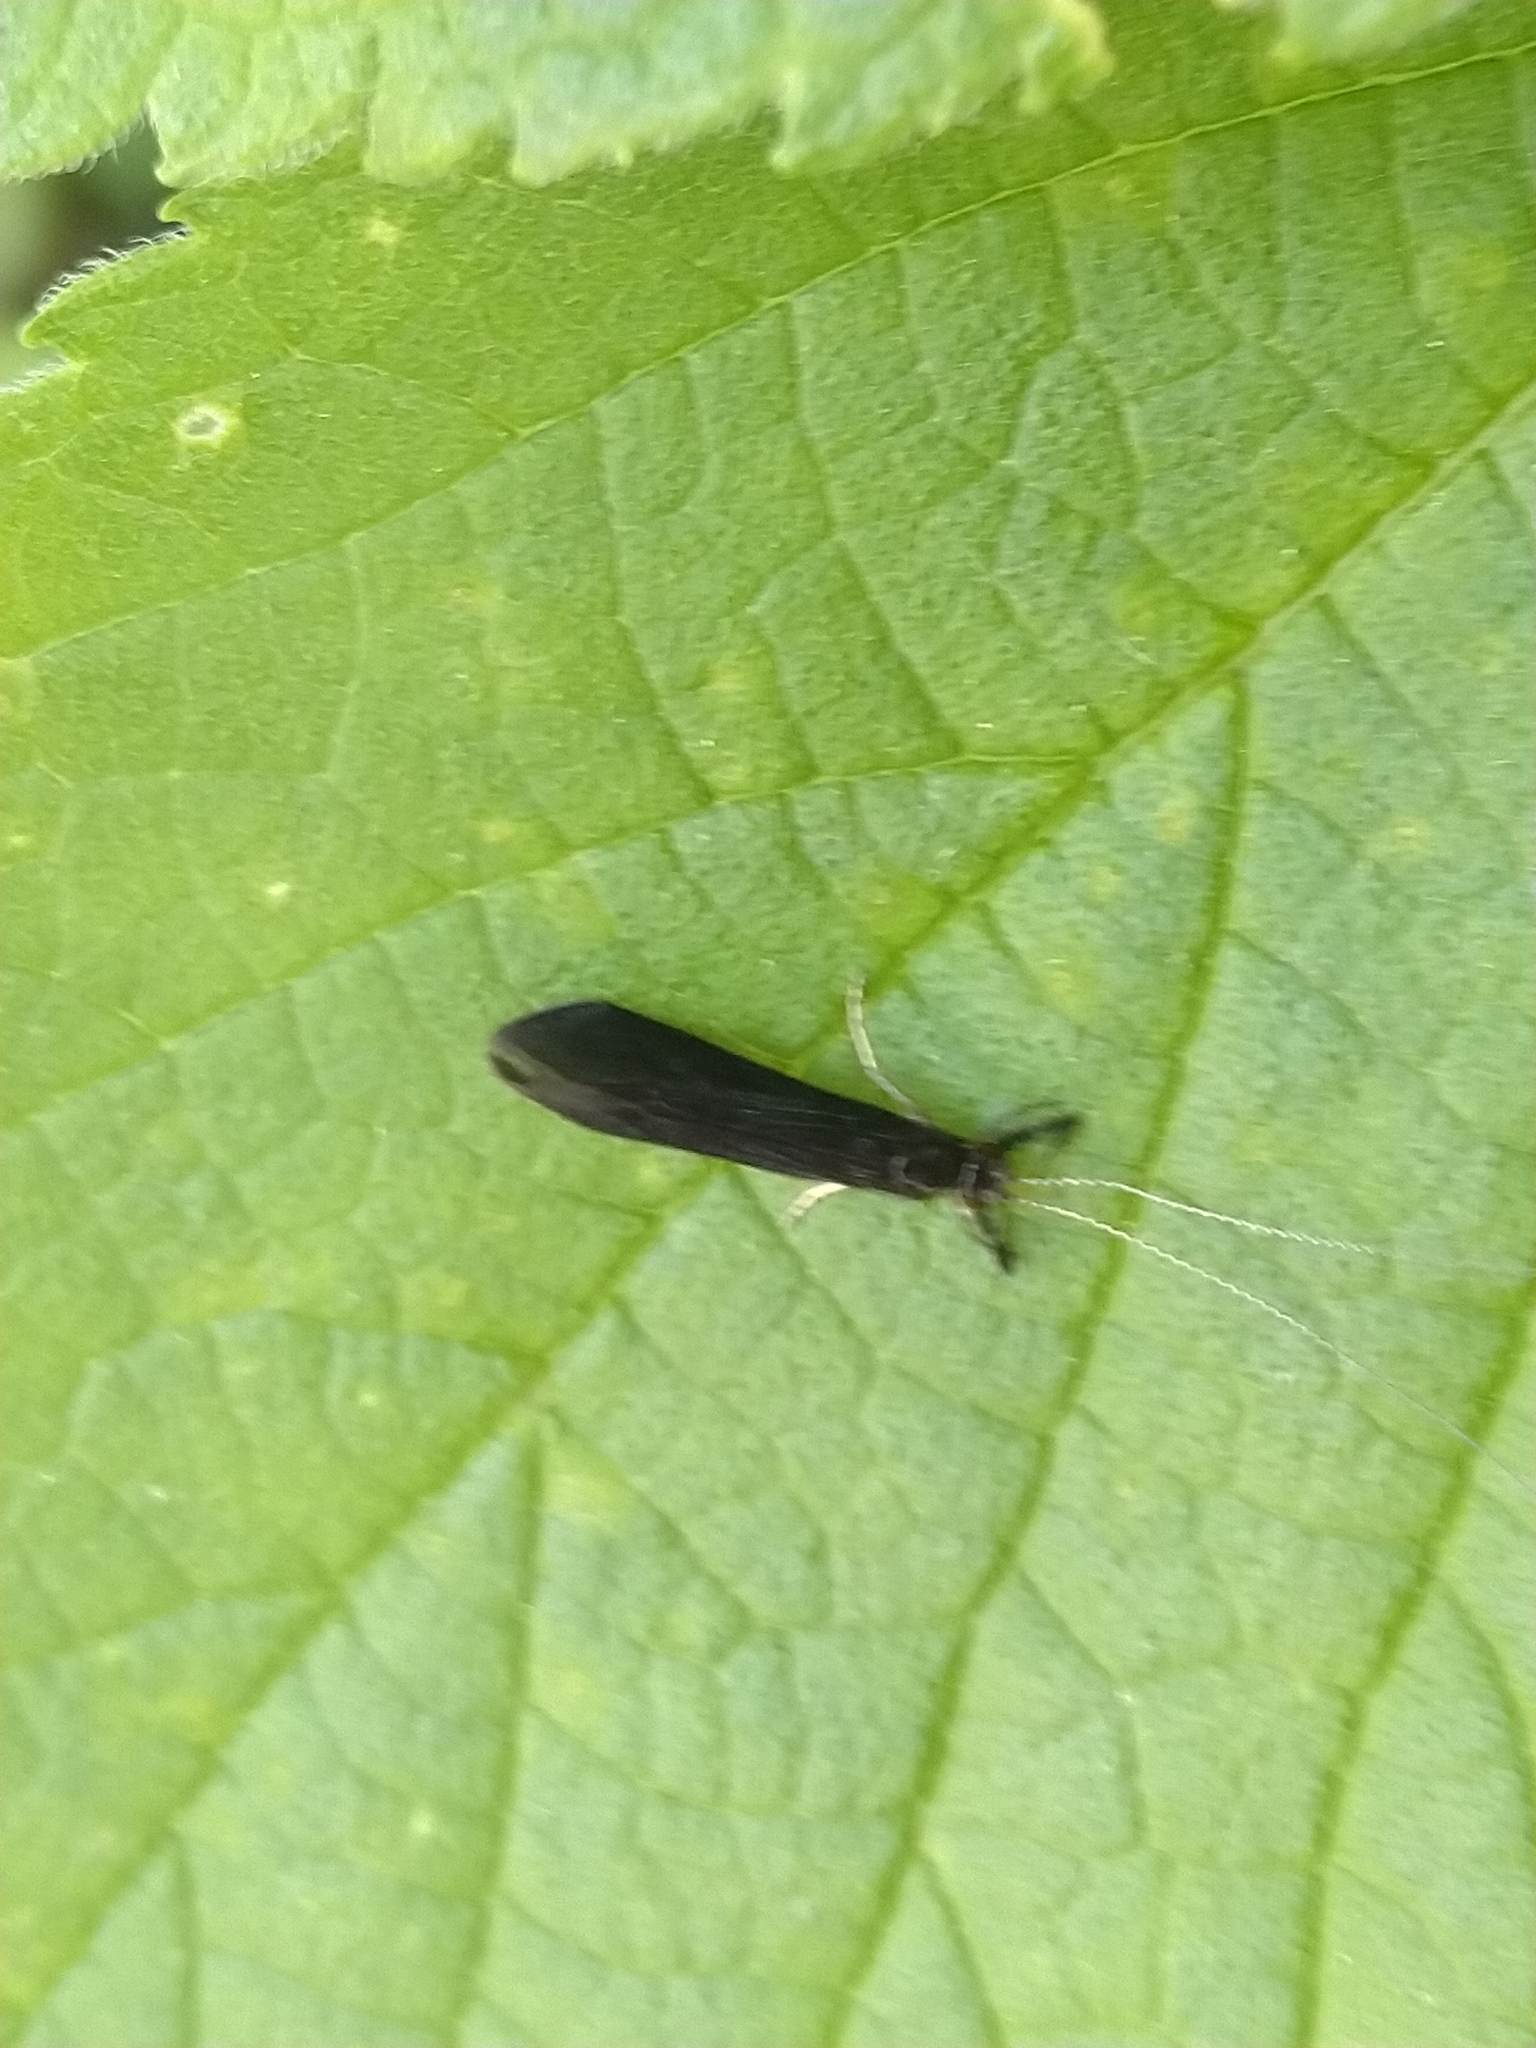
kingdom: Animalia
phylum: Arthropoda
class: Insecta
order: Trichoptera
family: Leptoceridae
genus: Mystacides
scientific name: Mystacides sepulchralis
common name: Black dancer caddisfly
